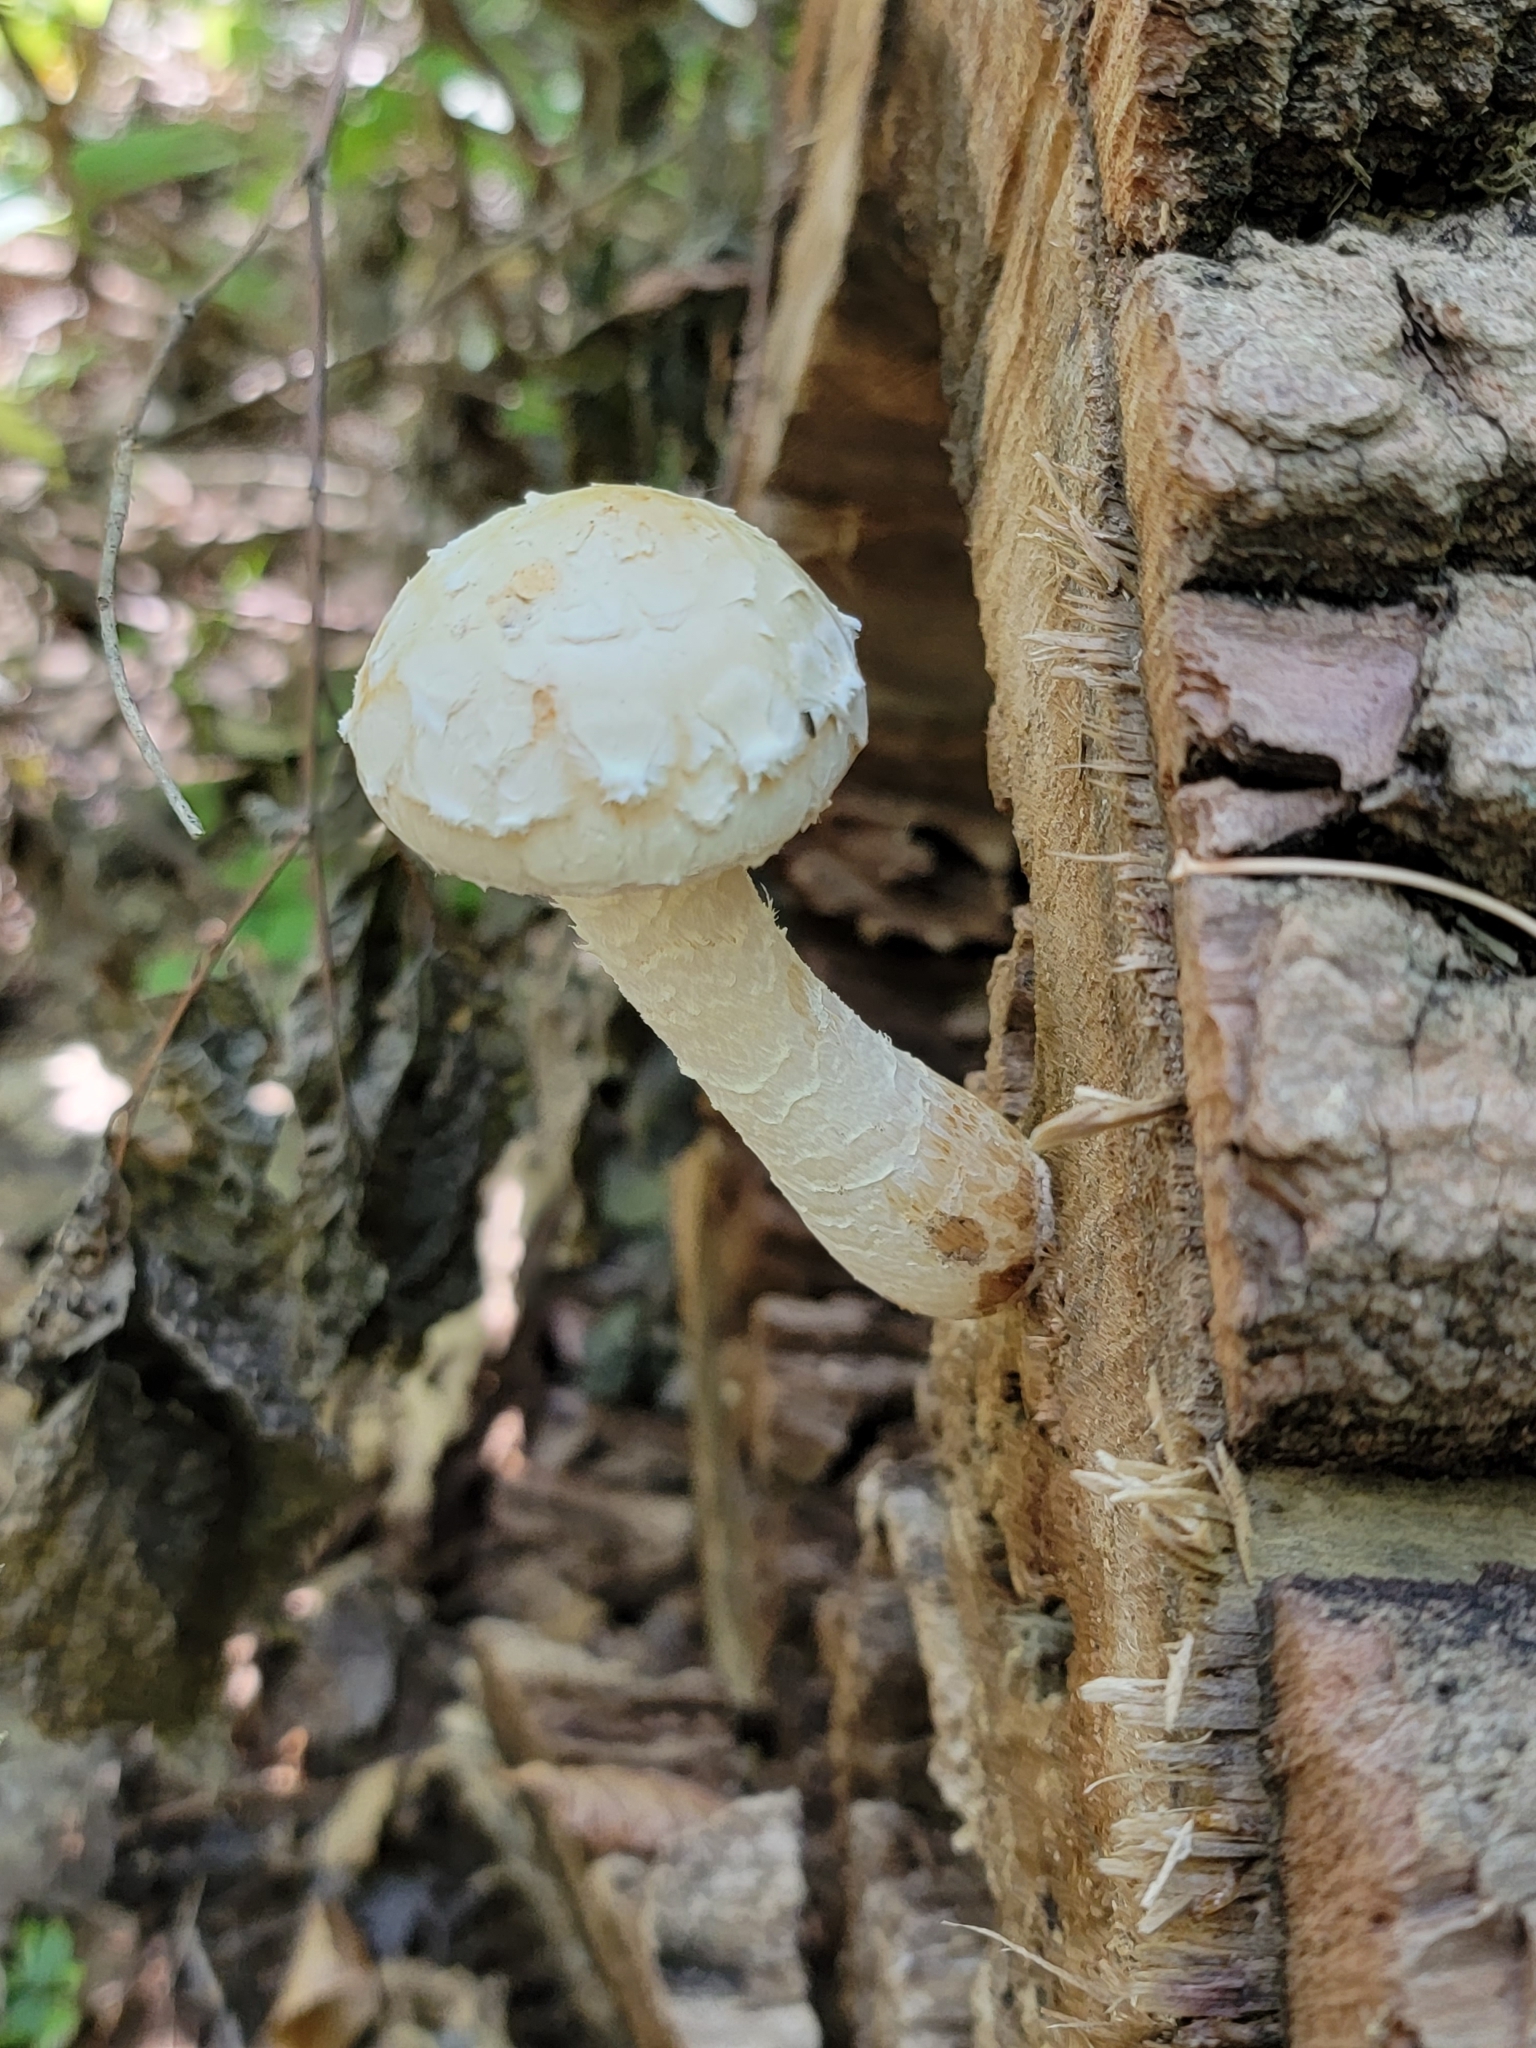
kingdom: Fungi
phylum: Basidiomycota
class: Agaricomycetes
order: Agaricales
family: Strophariaceae
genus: Pholiota
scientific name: Pholiota populnea
